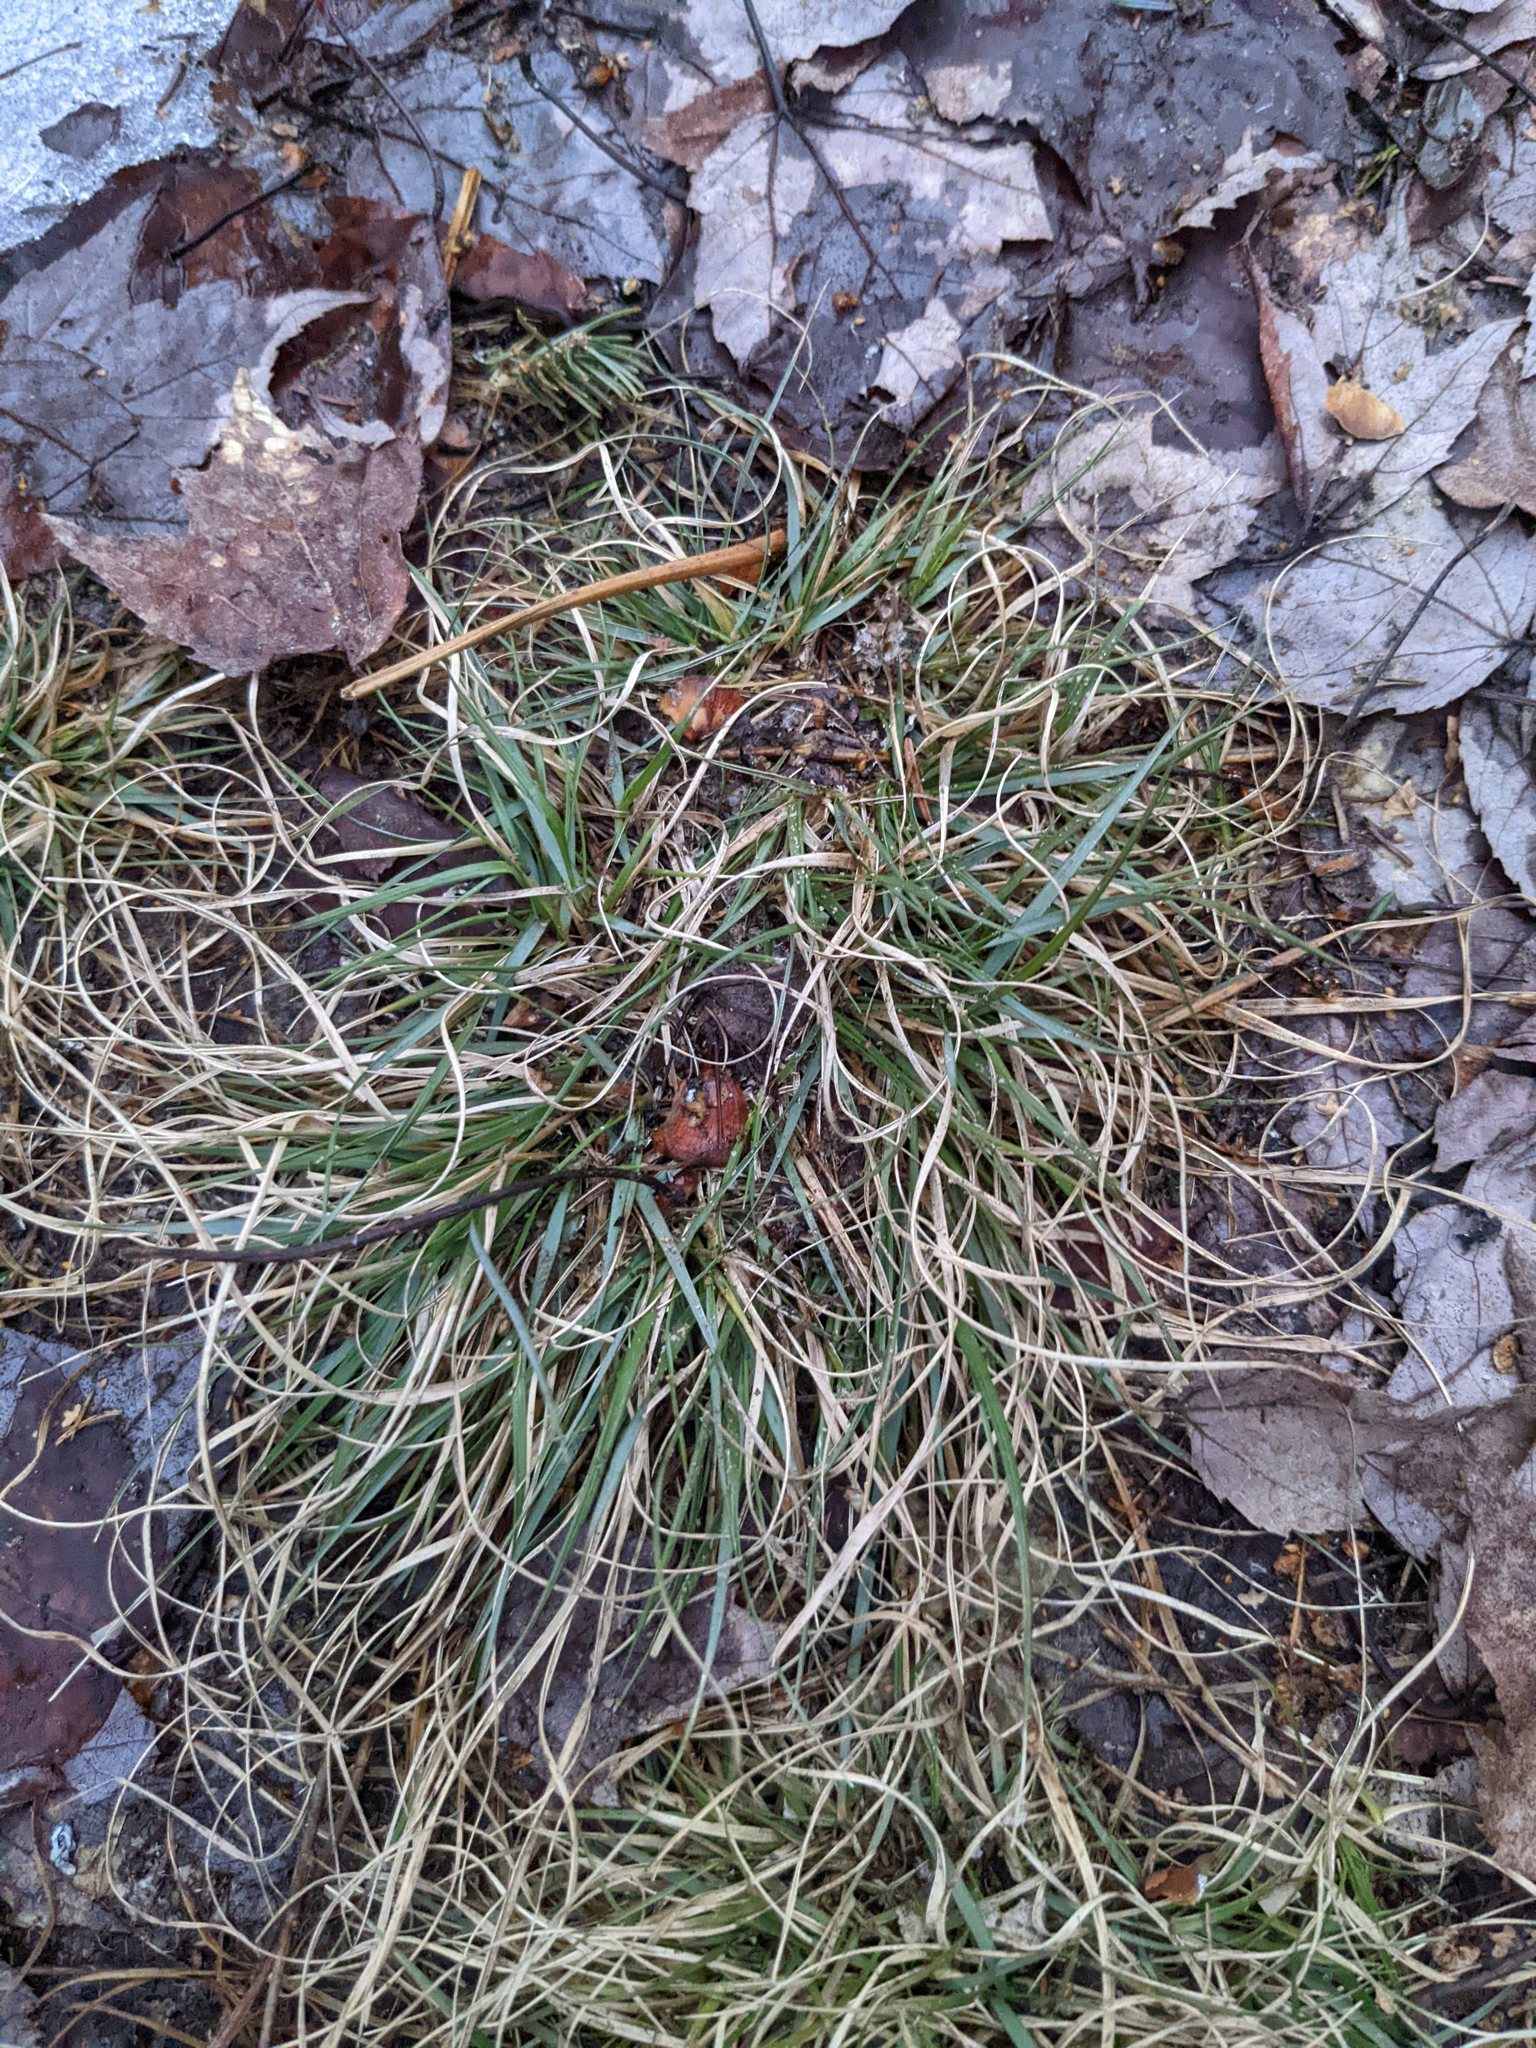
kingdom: Plantae
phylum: Tracheophyta
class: Liliopsida
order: Poales
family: Poaceae
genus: Danthonia
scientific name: Danthonia spicata
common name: Common wild oatgrass
